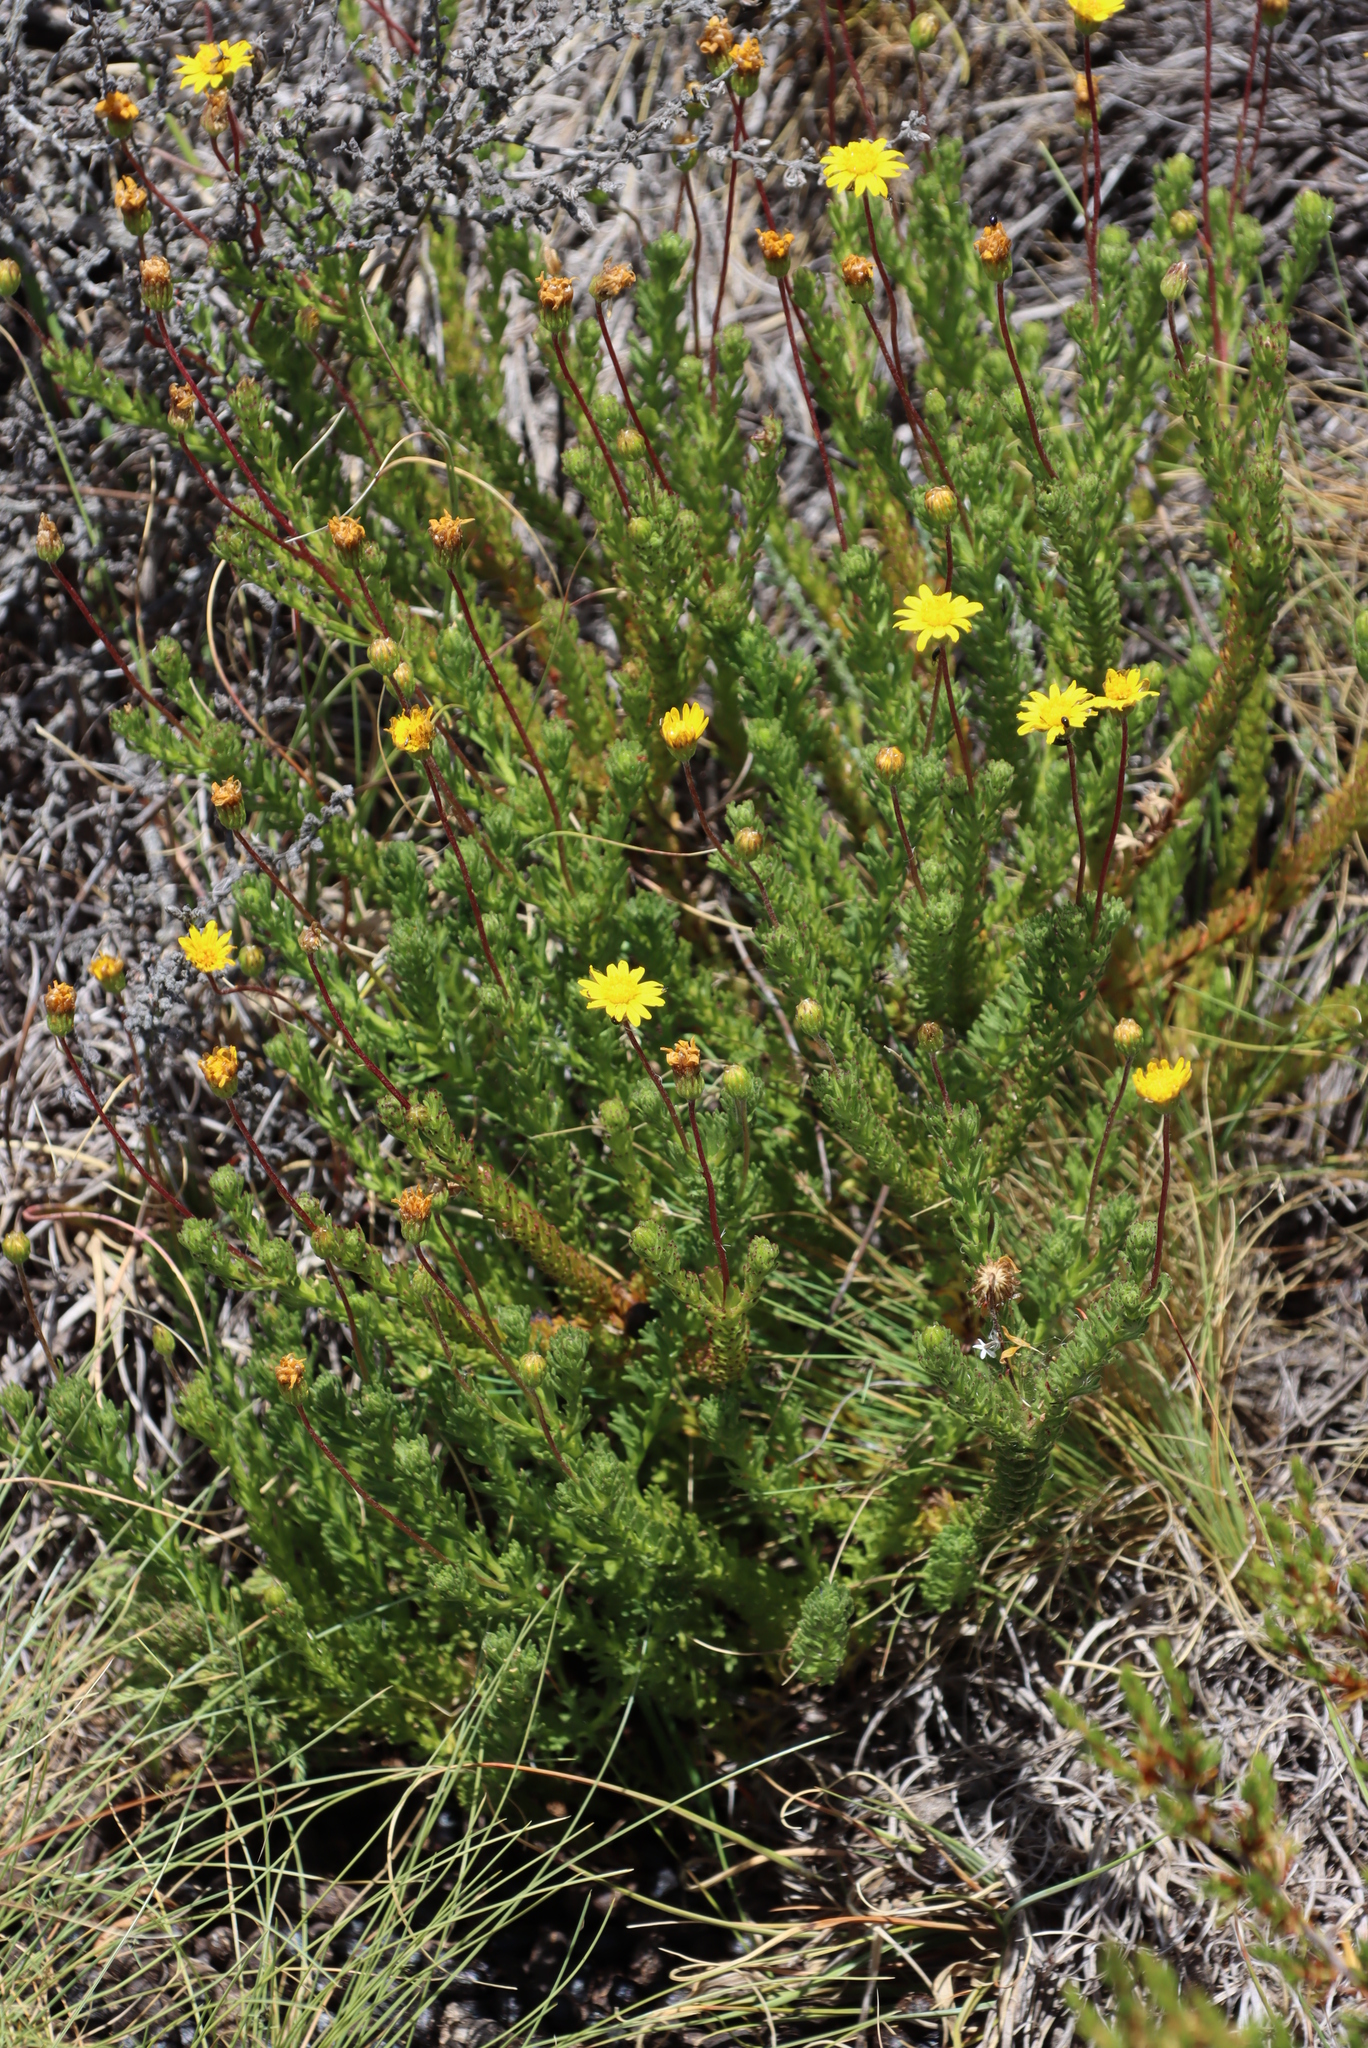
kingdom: Plantae
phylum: Tracheophyta
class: Magnoliopsida
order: Asterales
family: Asteraceae
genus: Ursinia
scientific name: Ursinia trifida
